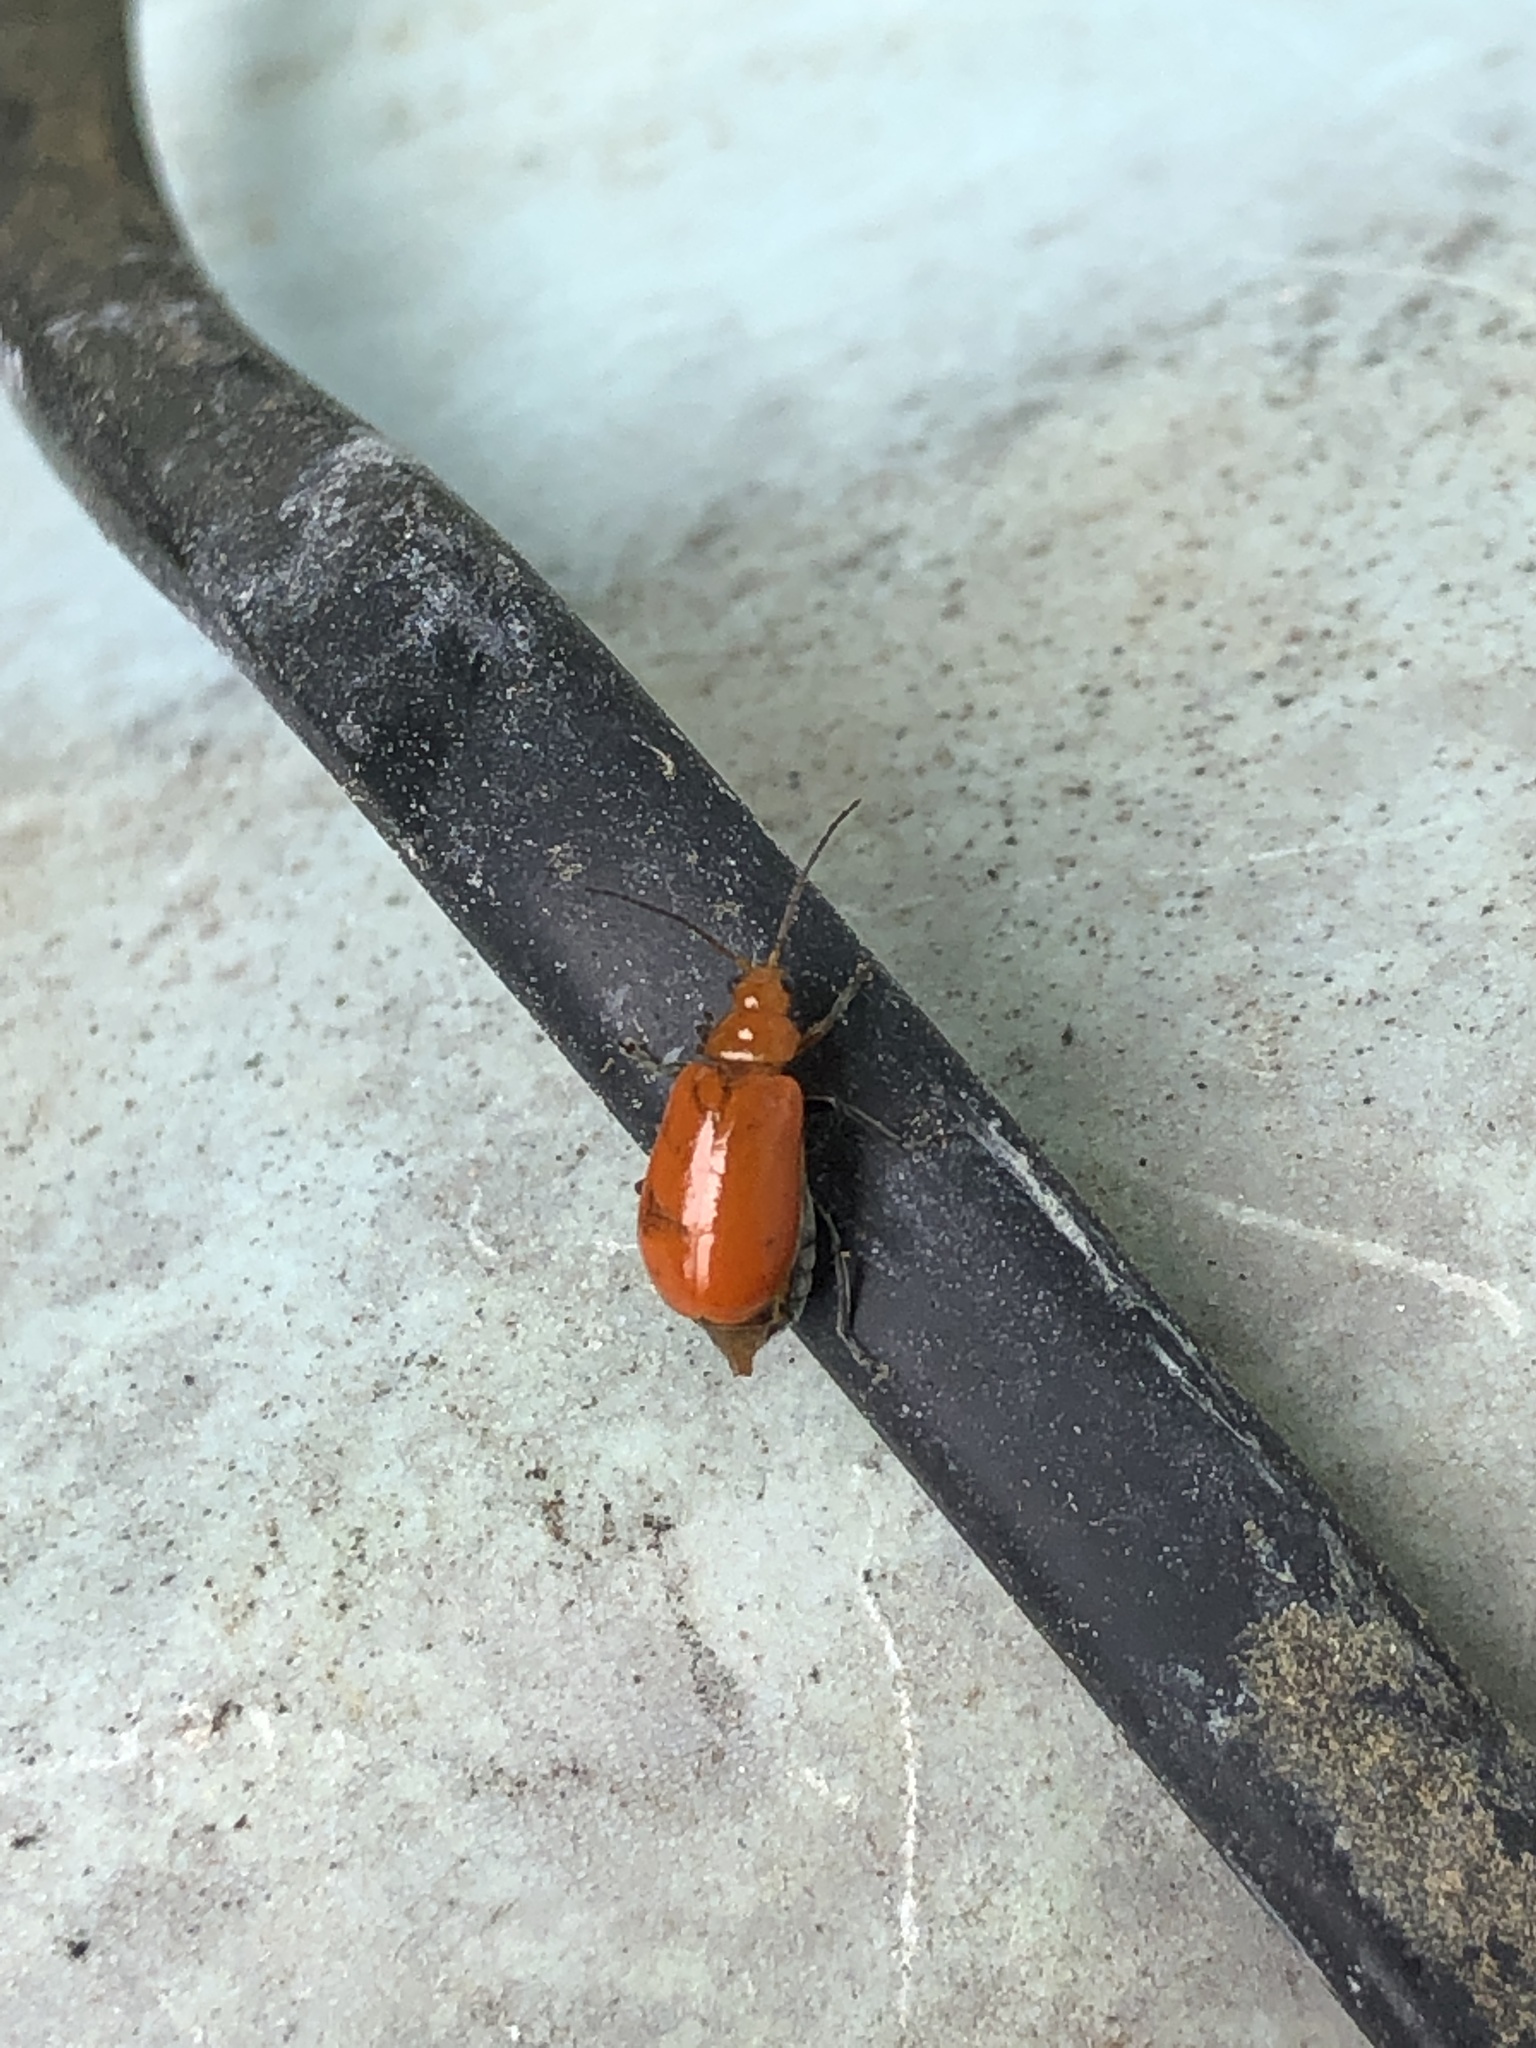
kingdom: Animalia
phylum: Arthropoda
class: Insecta
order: Coleoptera
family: Chrysomelidae
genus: Aulacophora
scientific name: Aulacophora indica
